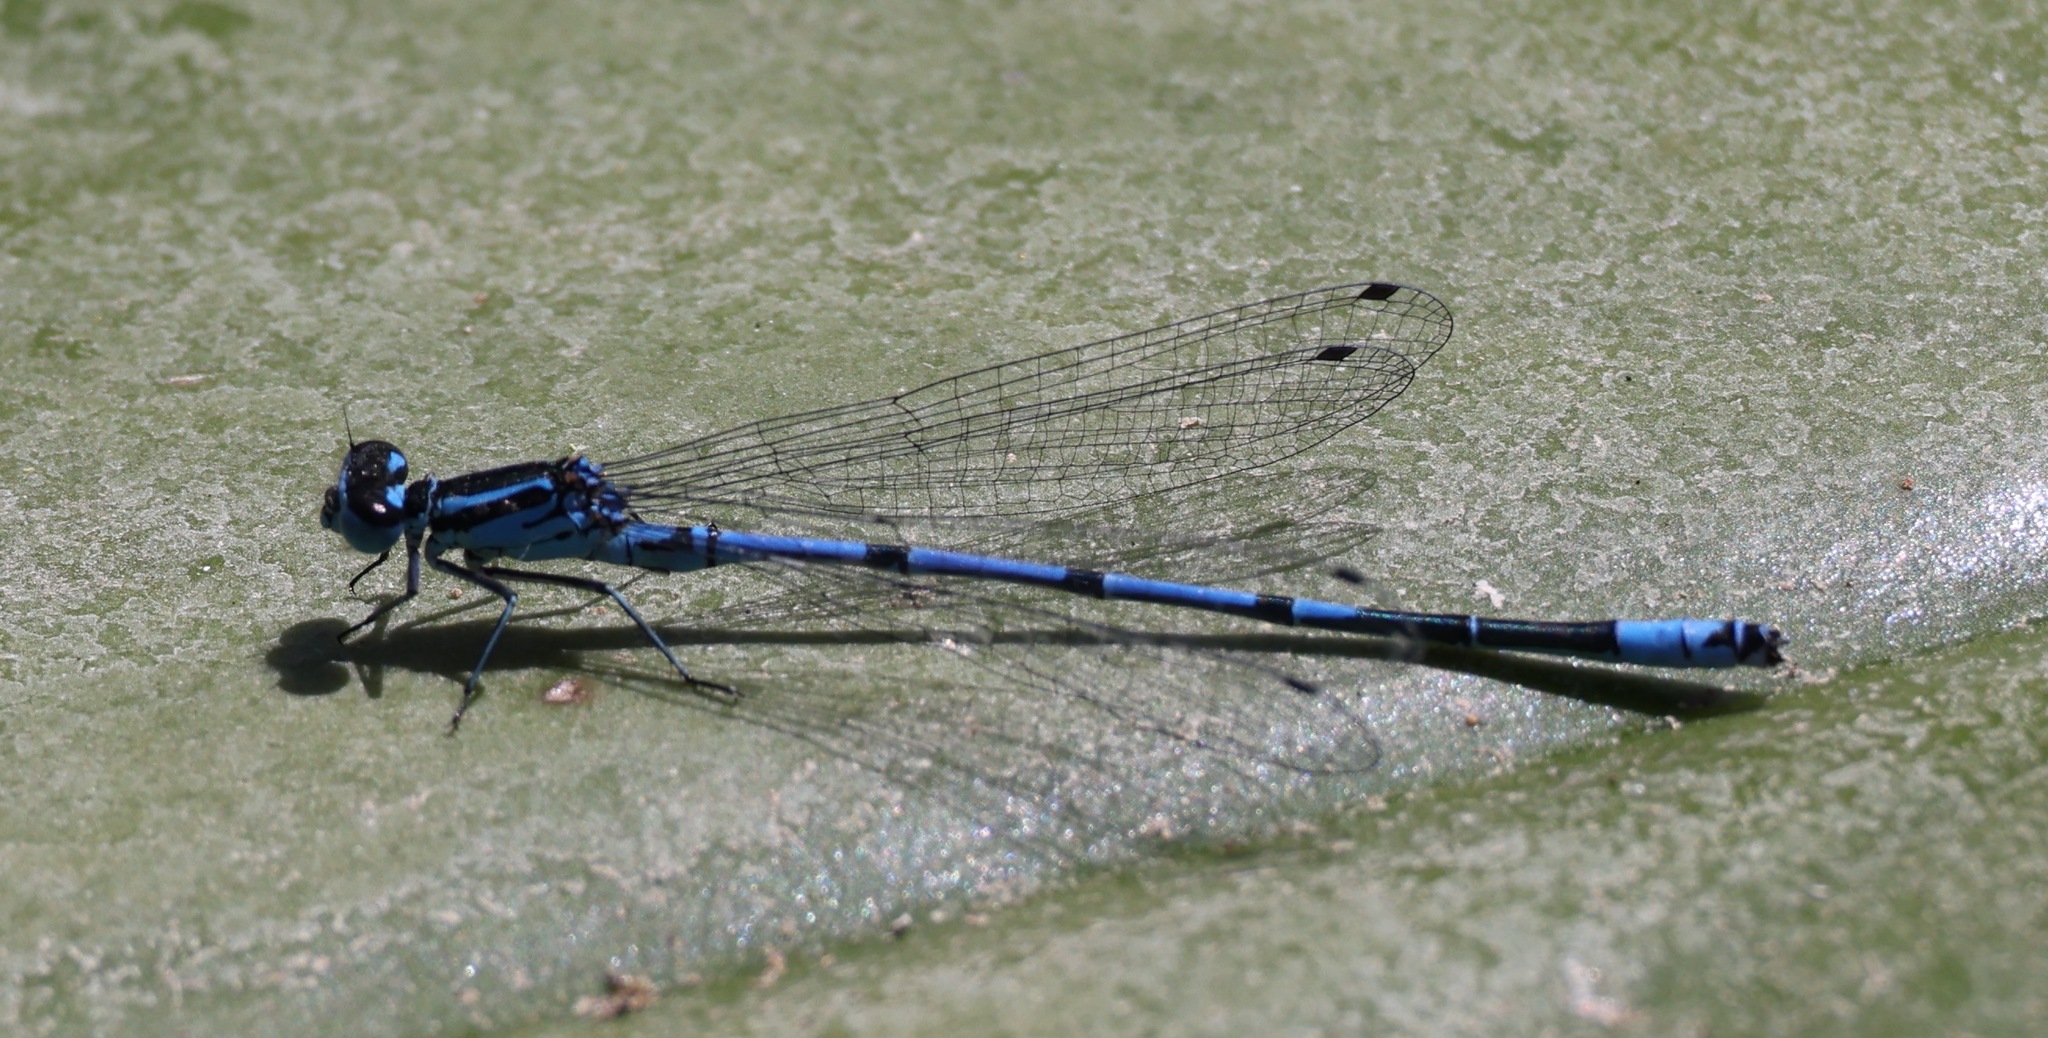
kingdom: Animalia
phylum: Arthropoda
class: Insecta
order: Odonata
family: Coenagrionidae
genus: Coenagrion
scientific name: Coenagrion puella
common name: Azure damselfly
